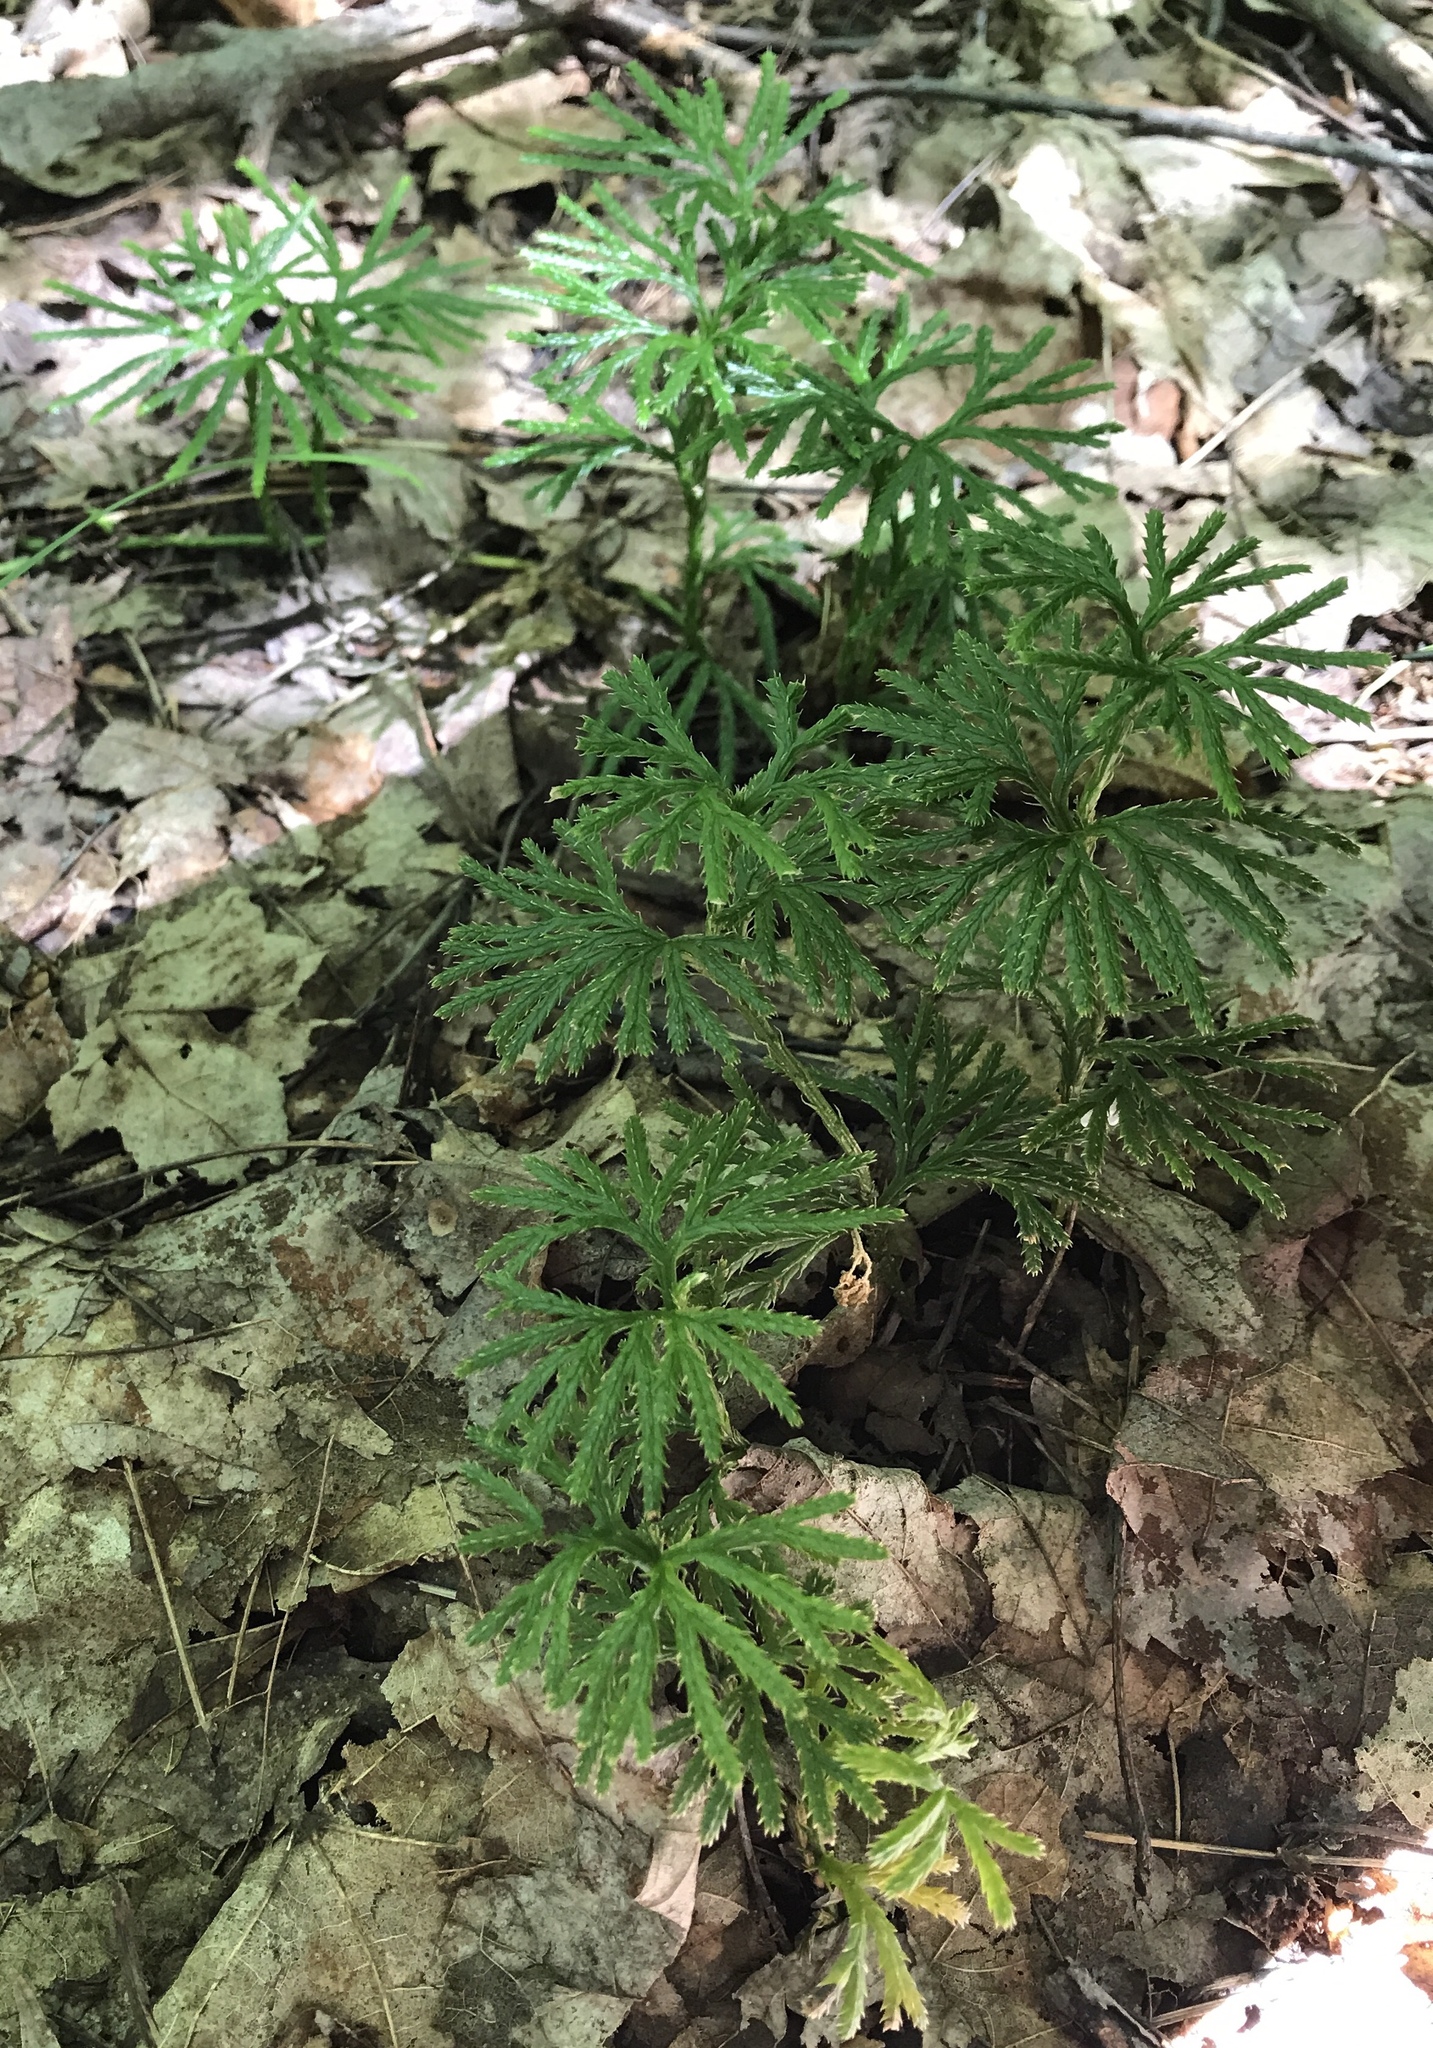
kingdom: Plantae
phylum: Tracheophyta
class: Lycopodiopsida
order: Lycopodiales
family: Lycopodiaceae
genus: Diphasiastrum
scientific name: Diphasiastrum digitatum
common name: Southern running-pine
